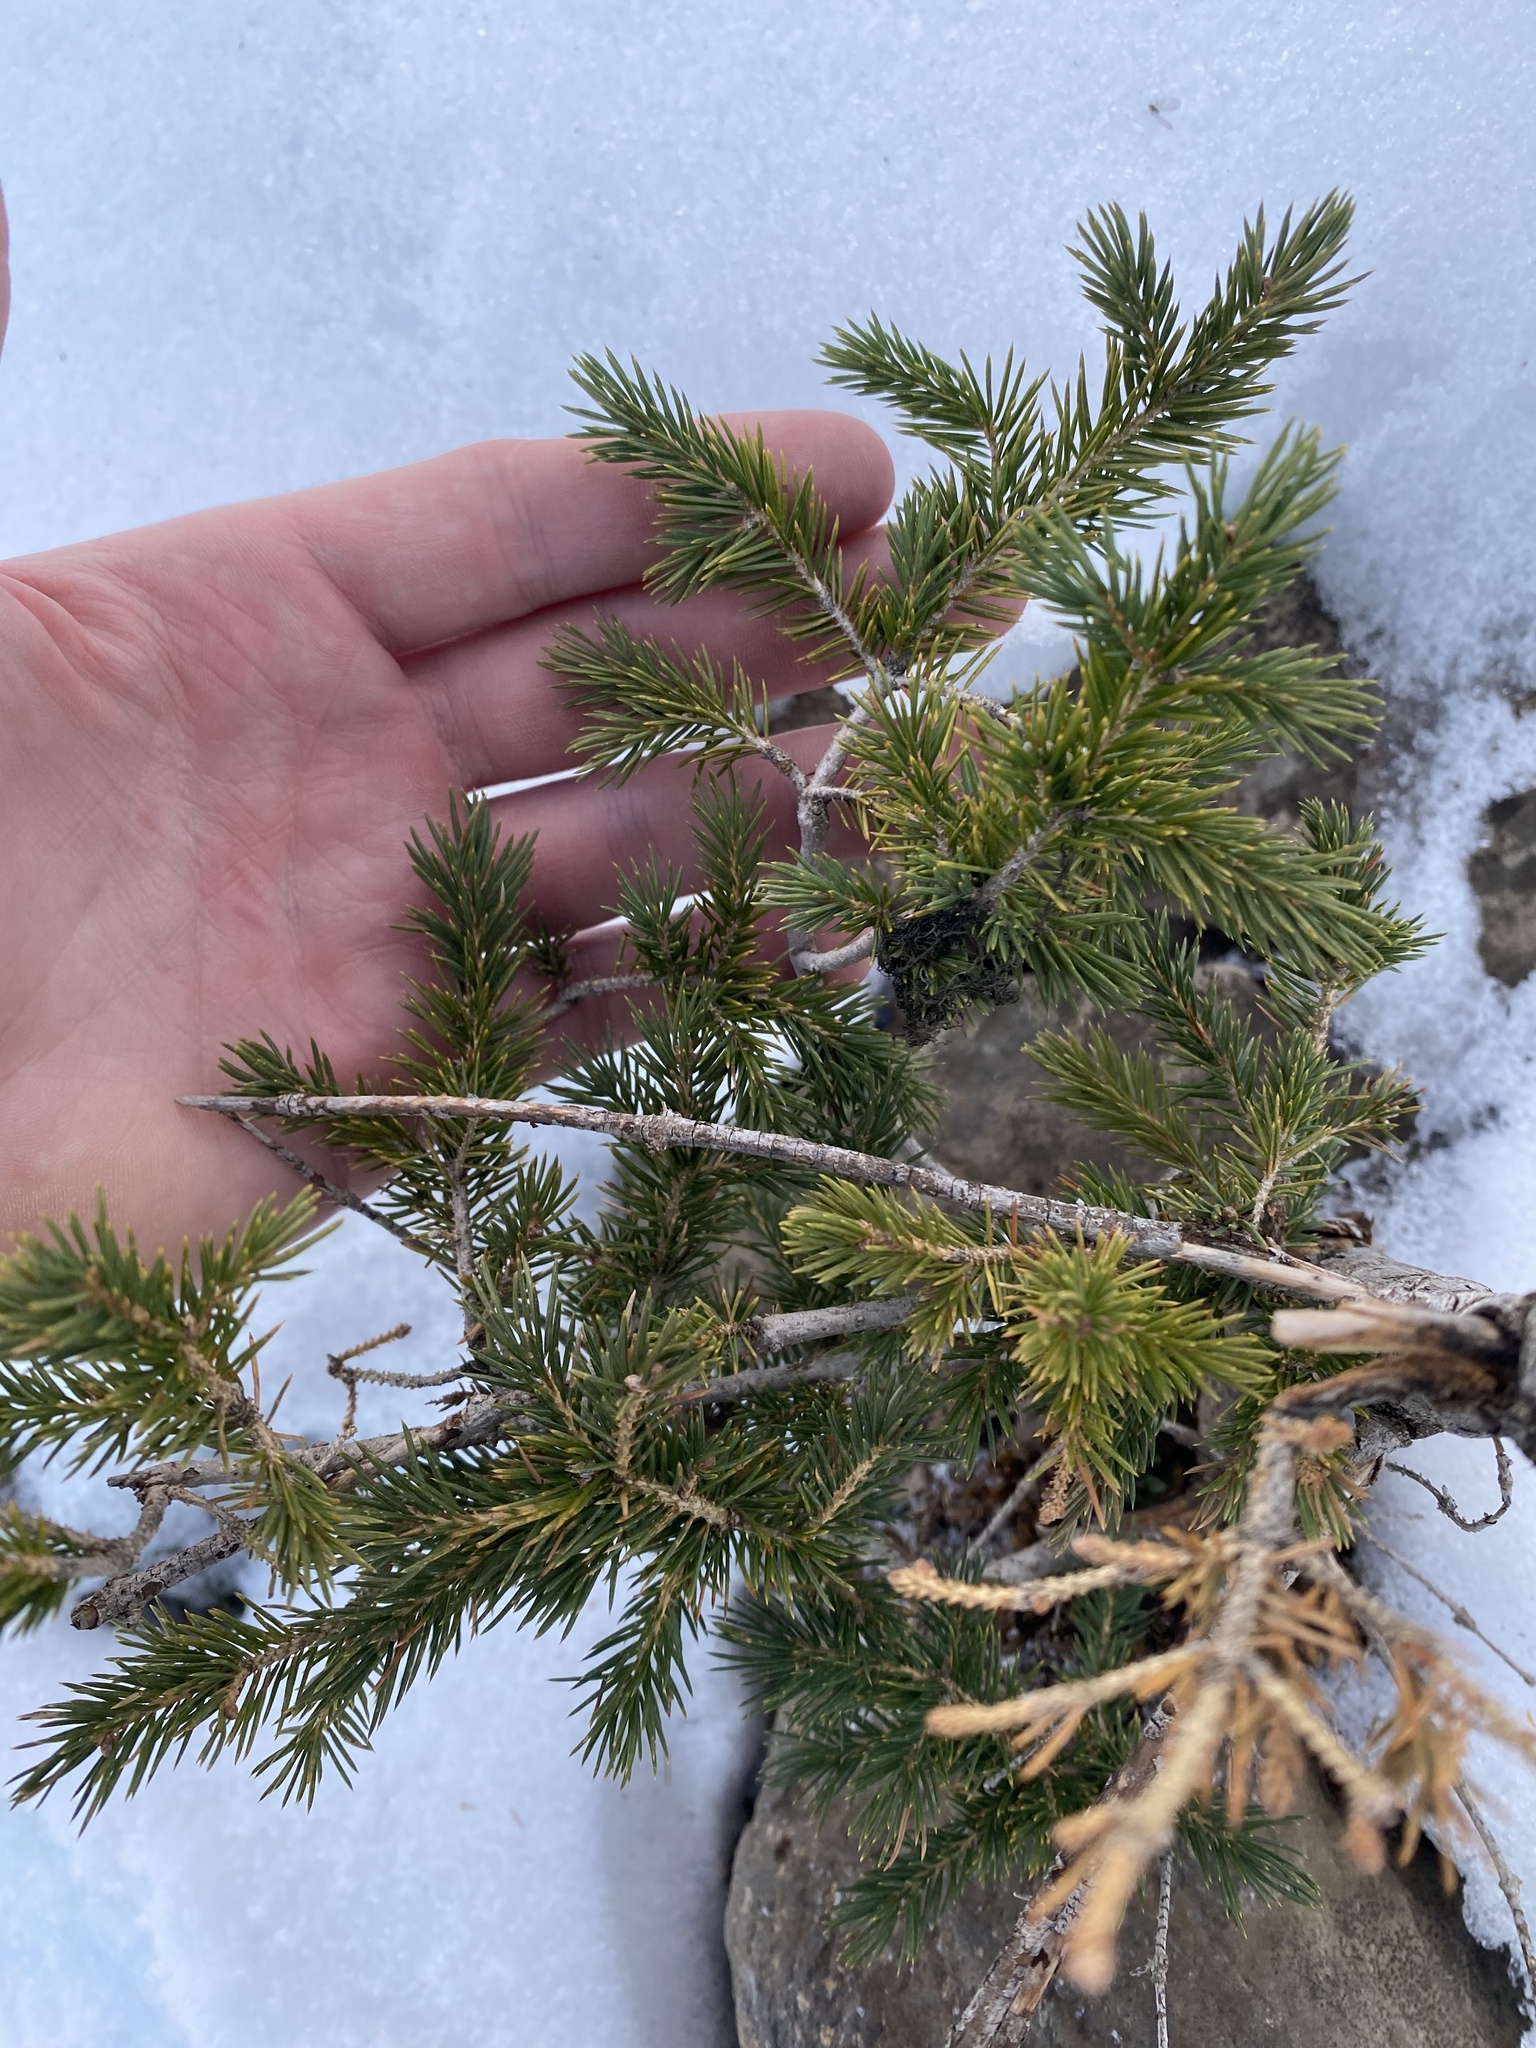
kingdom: Plantae
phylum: Tracheophyta
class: Pinopsida
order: Pinales
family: Pinaceae
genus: Picea
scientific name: Picea engelmannii
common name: Engelmann spruce
